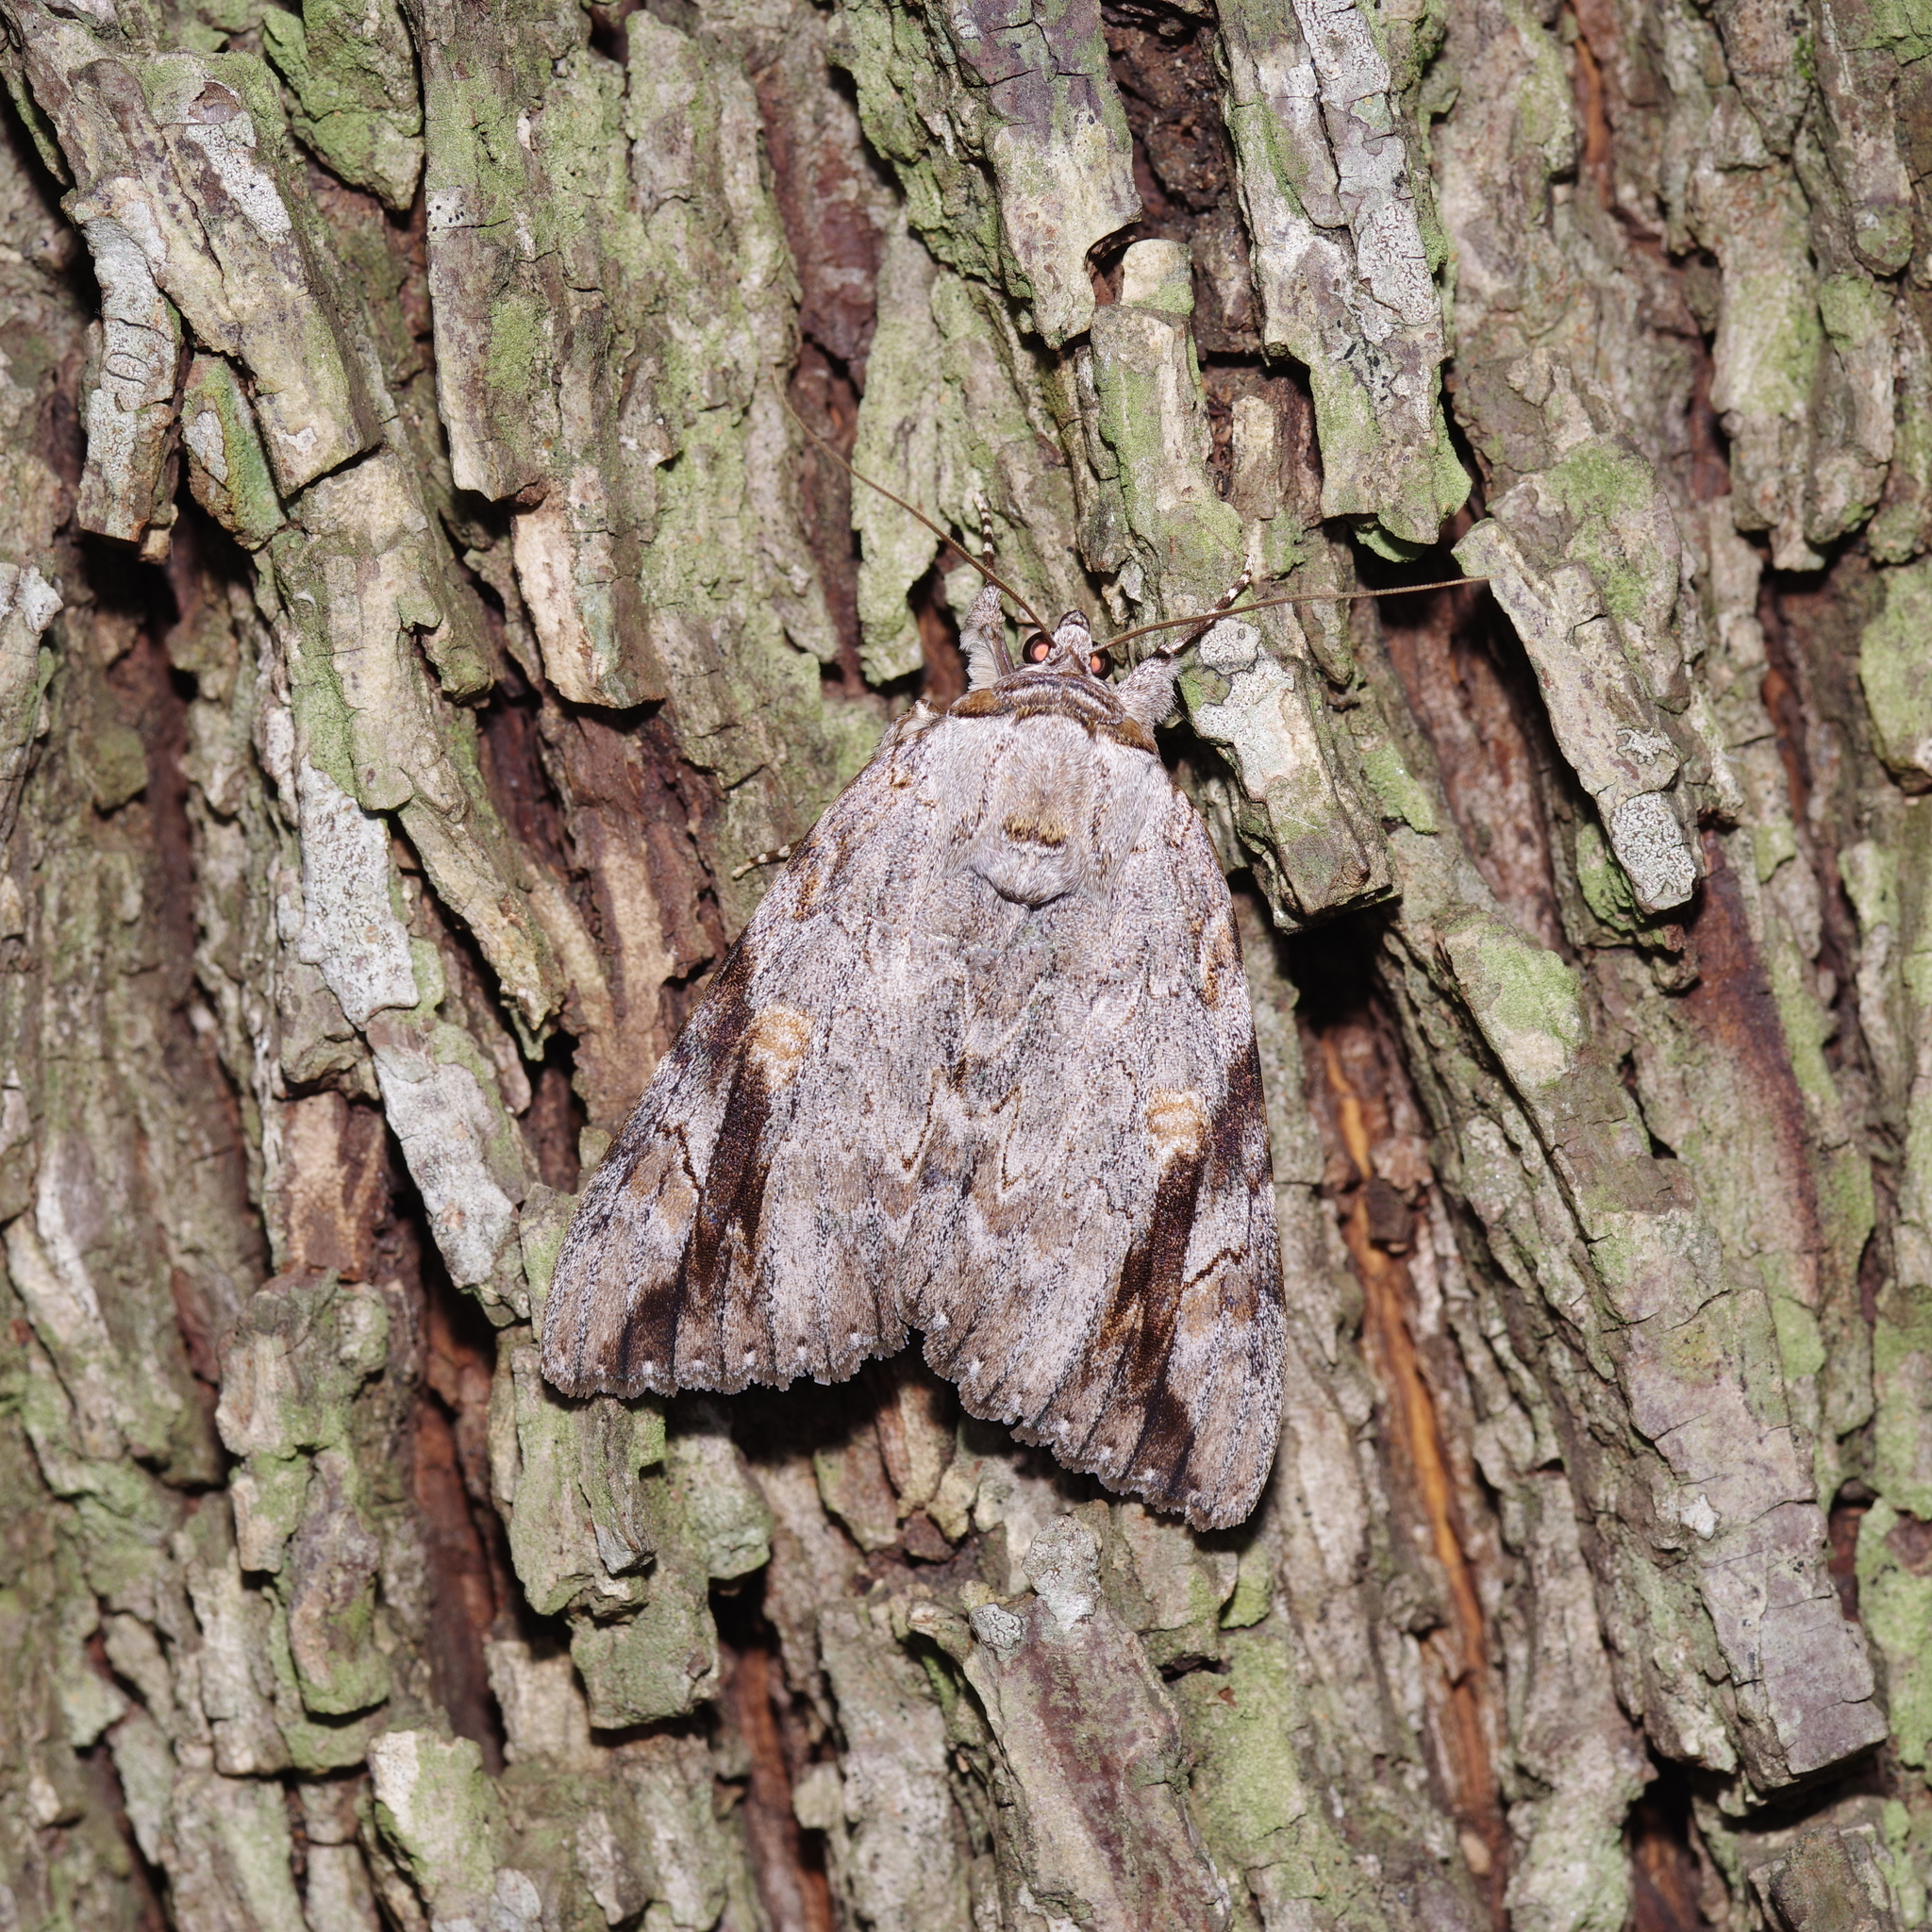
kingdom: Animalia
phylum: Arthropoda
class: Insecta
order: Lepidoptera
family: Erebidae
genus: Catocala
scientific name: Catocala maestosa
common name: Sad underwing
